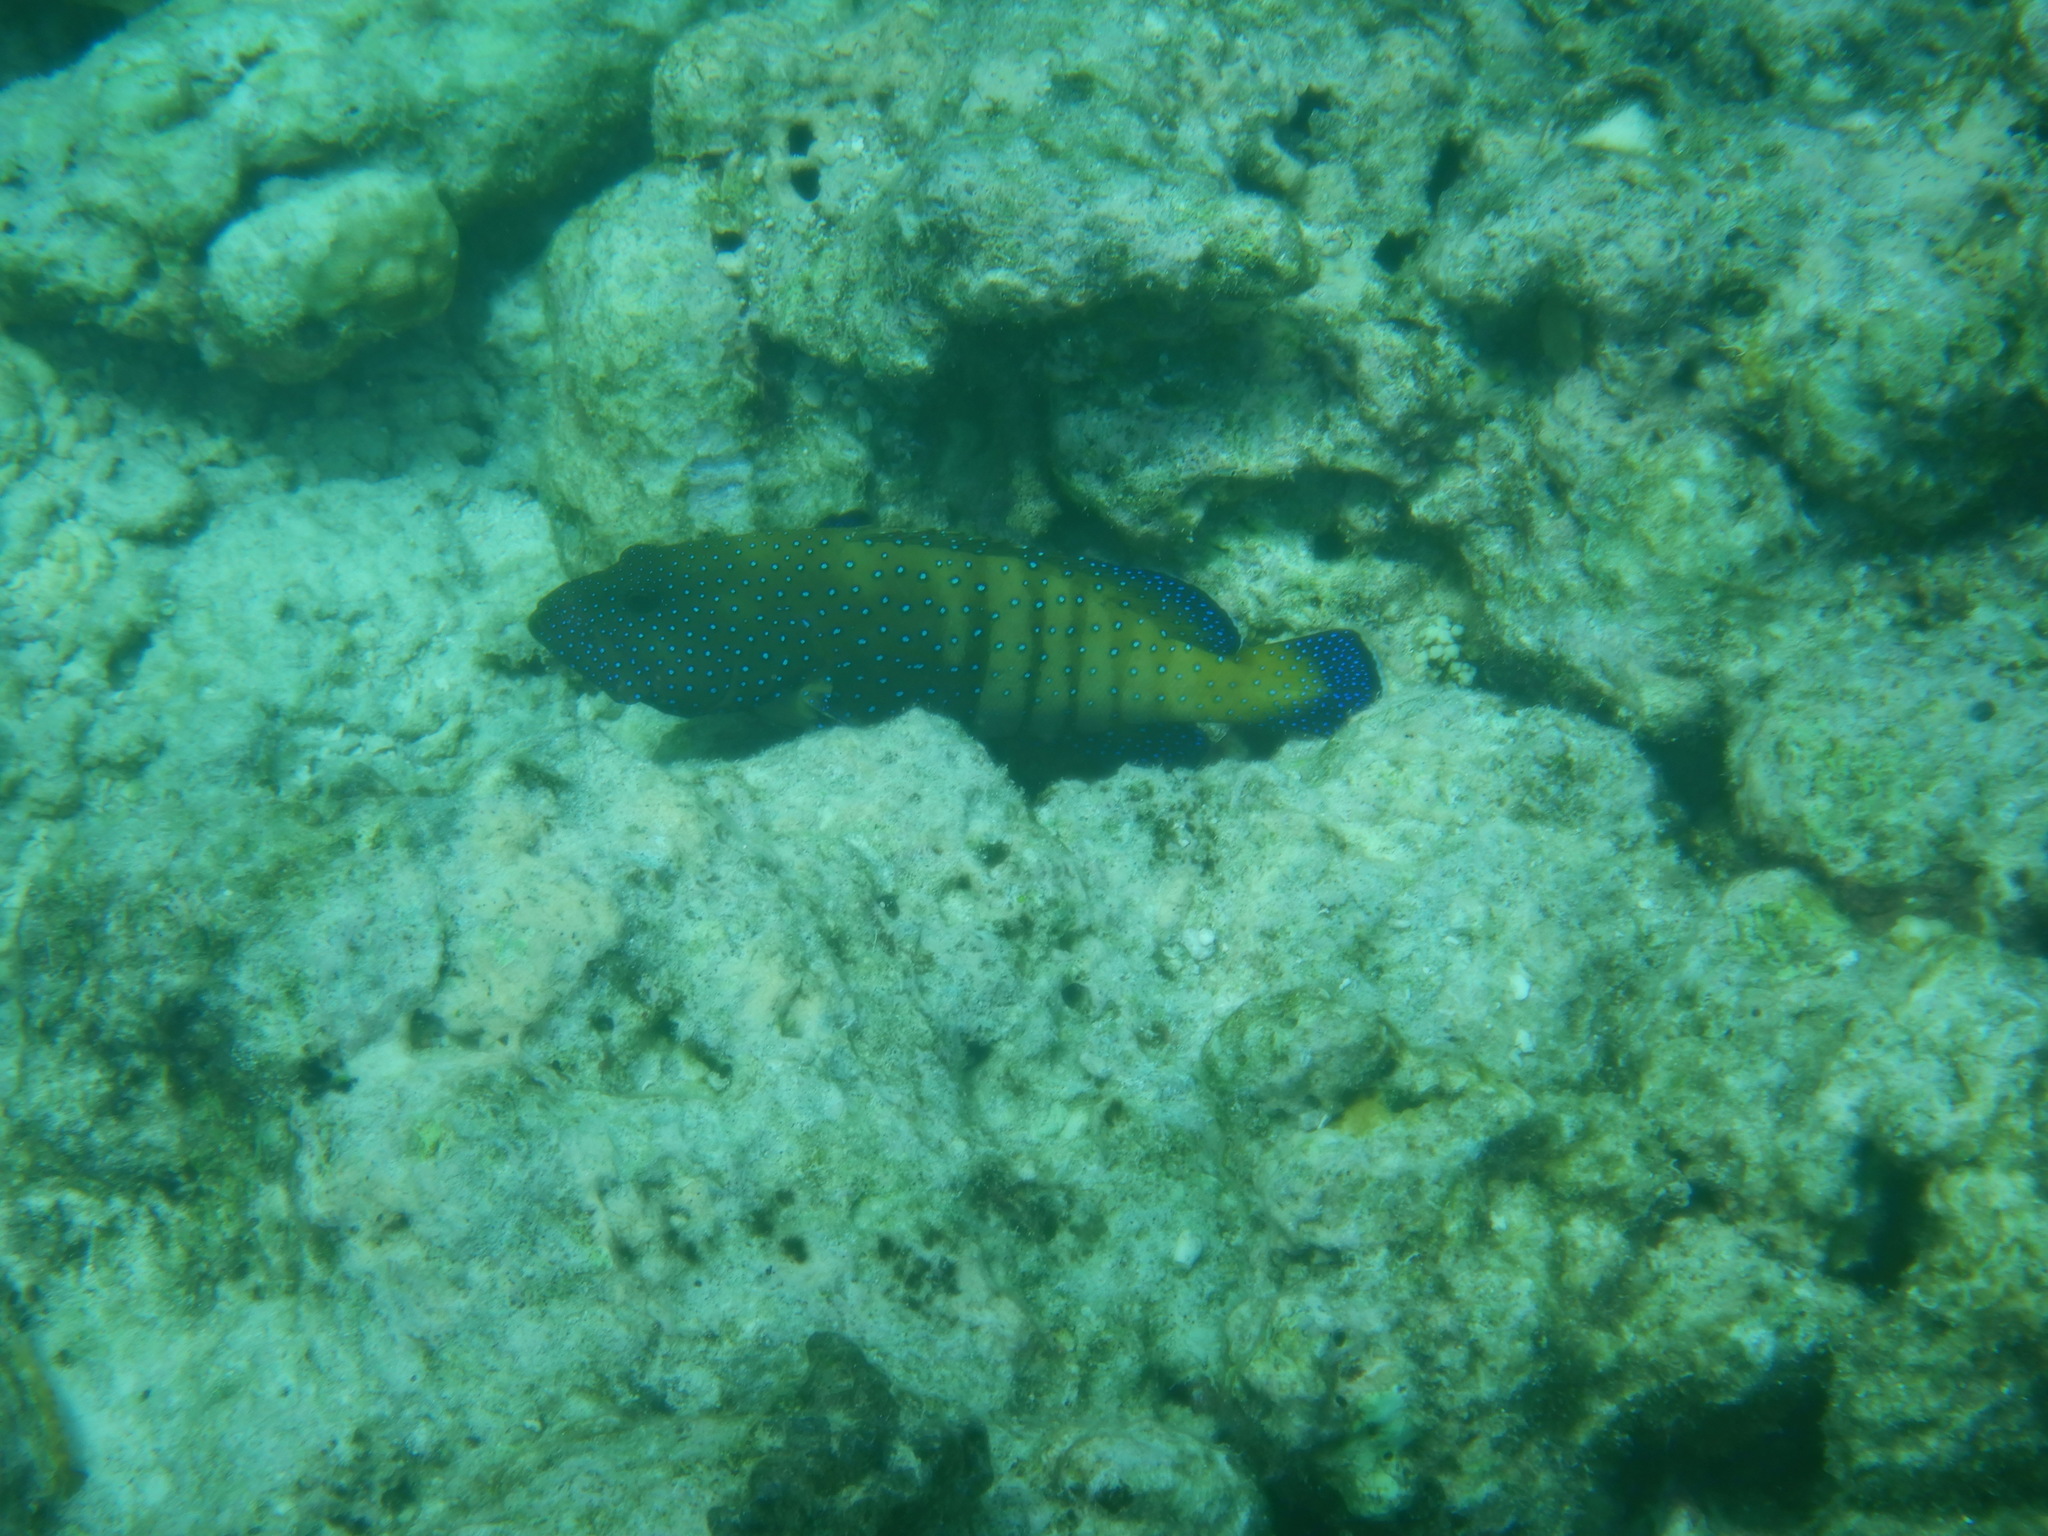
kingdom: Animalia
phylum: Chordata
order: Perciformes
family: Serranidae
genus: Cephalopholis
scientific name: Cephalopholis argus
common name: Peacock grouper
